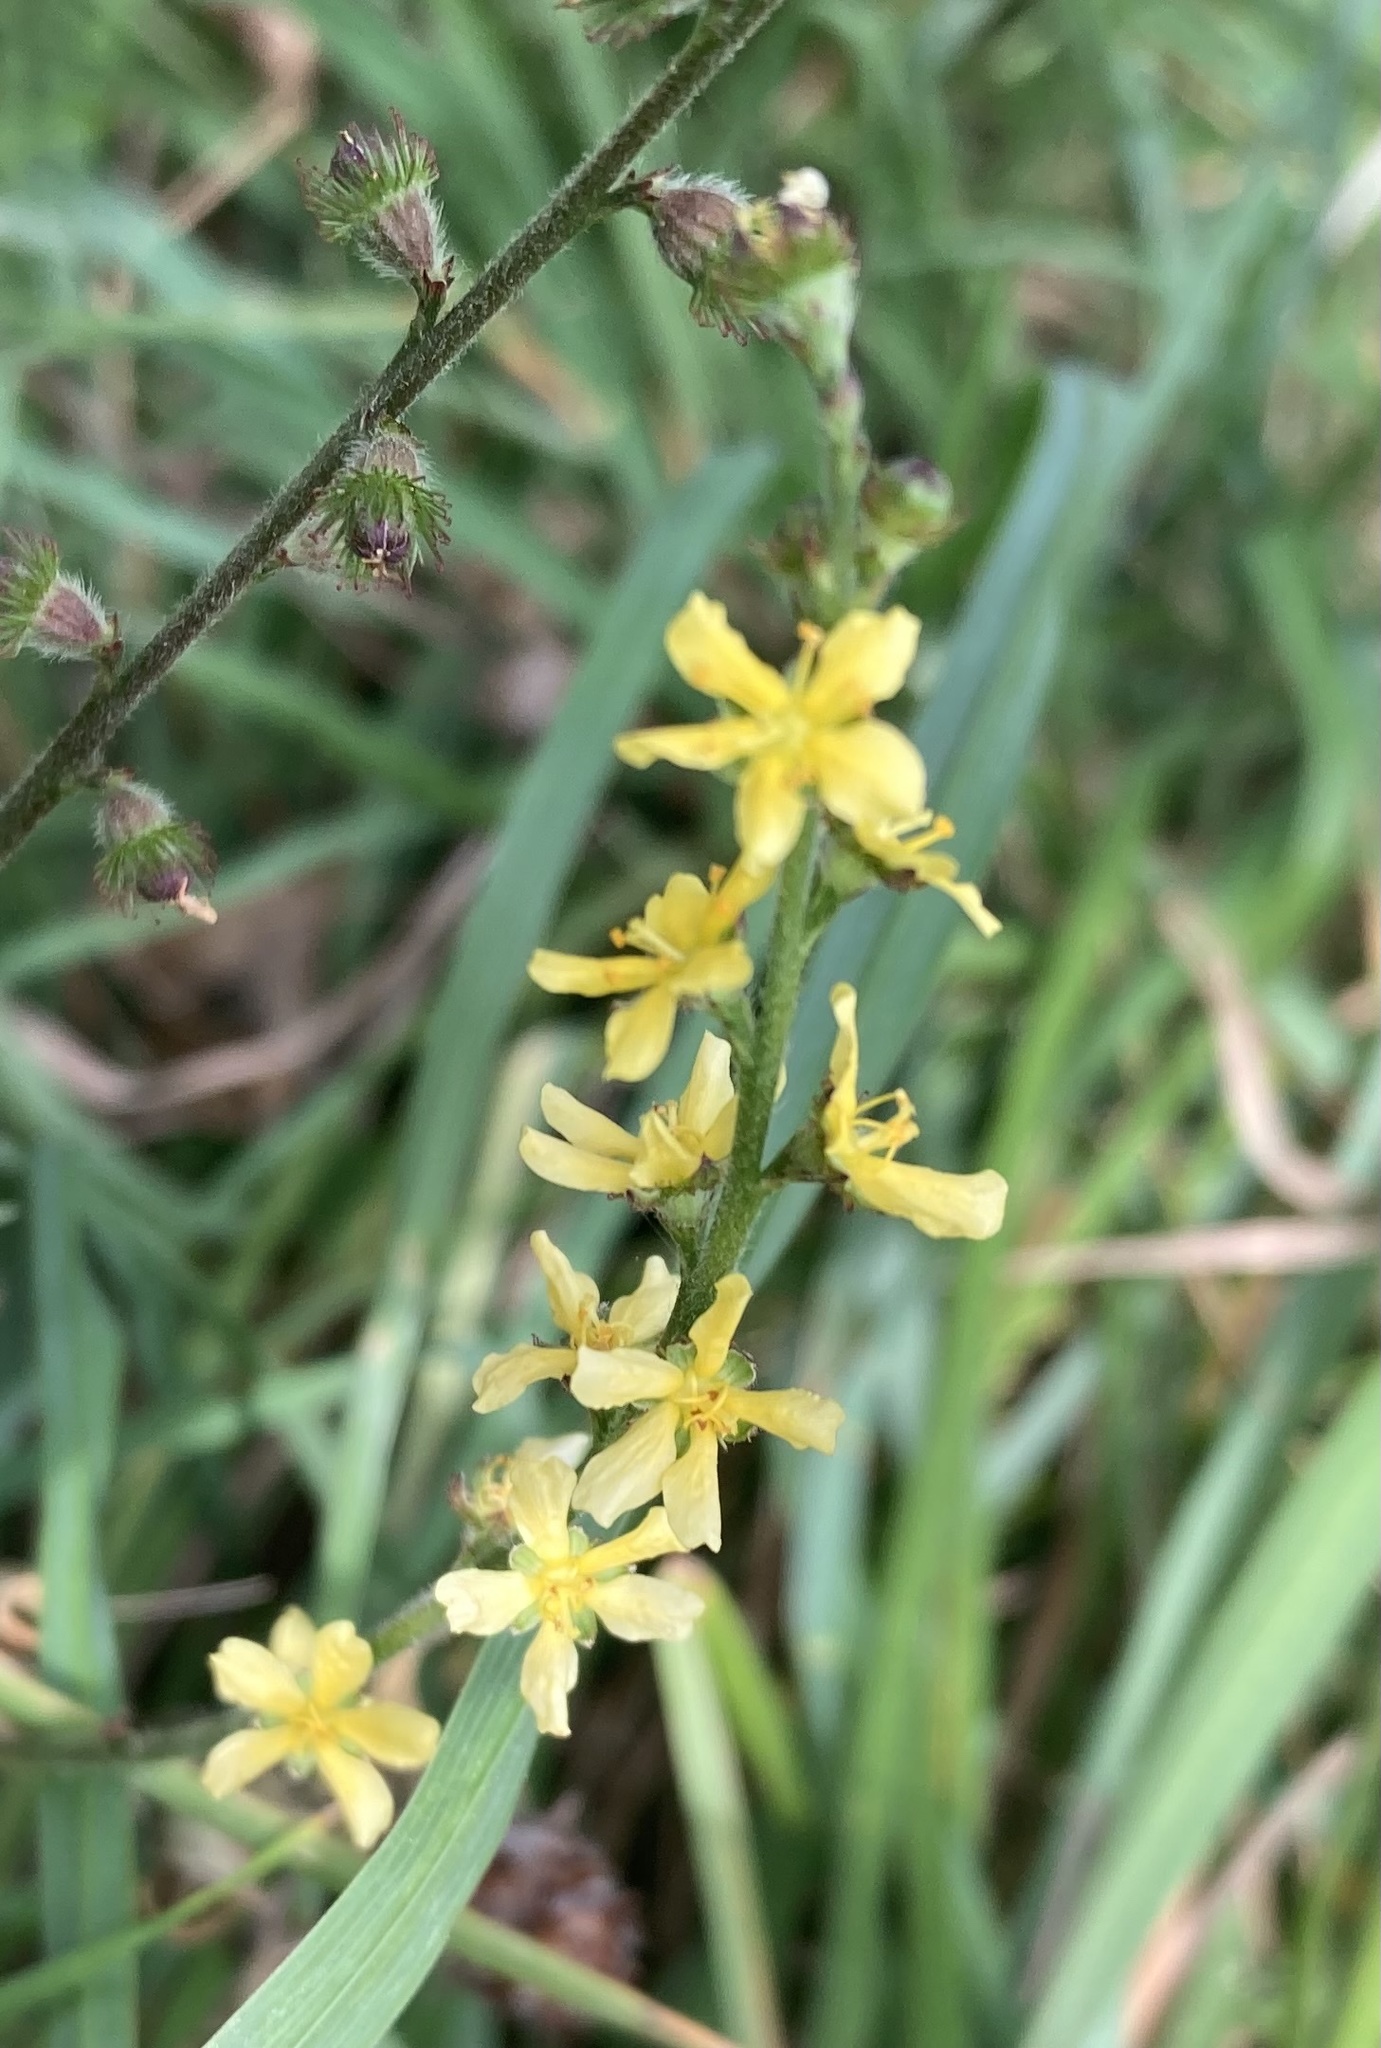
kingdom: Plantae
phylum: Tracheophyta
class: Magnoliopsida
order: Rosales
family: Rosaceae
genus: Agrimonia
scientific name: Agrimonia eupatoria
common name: Agrimony
